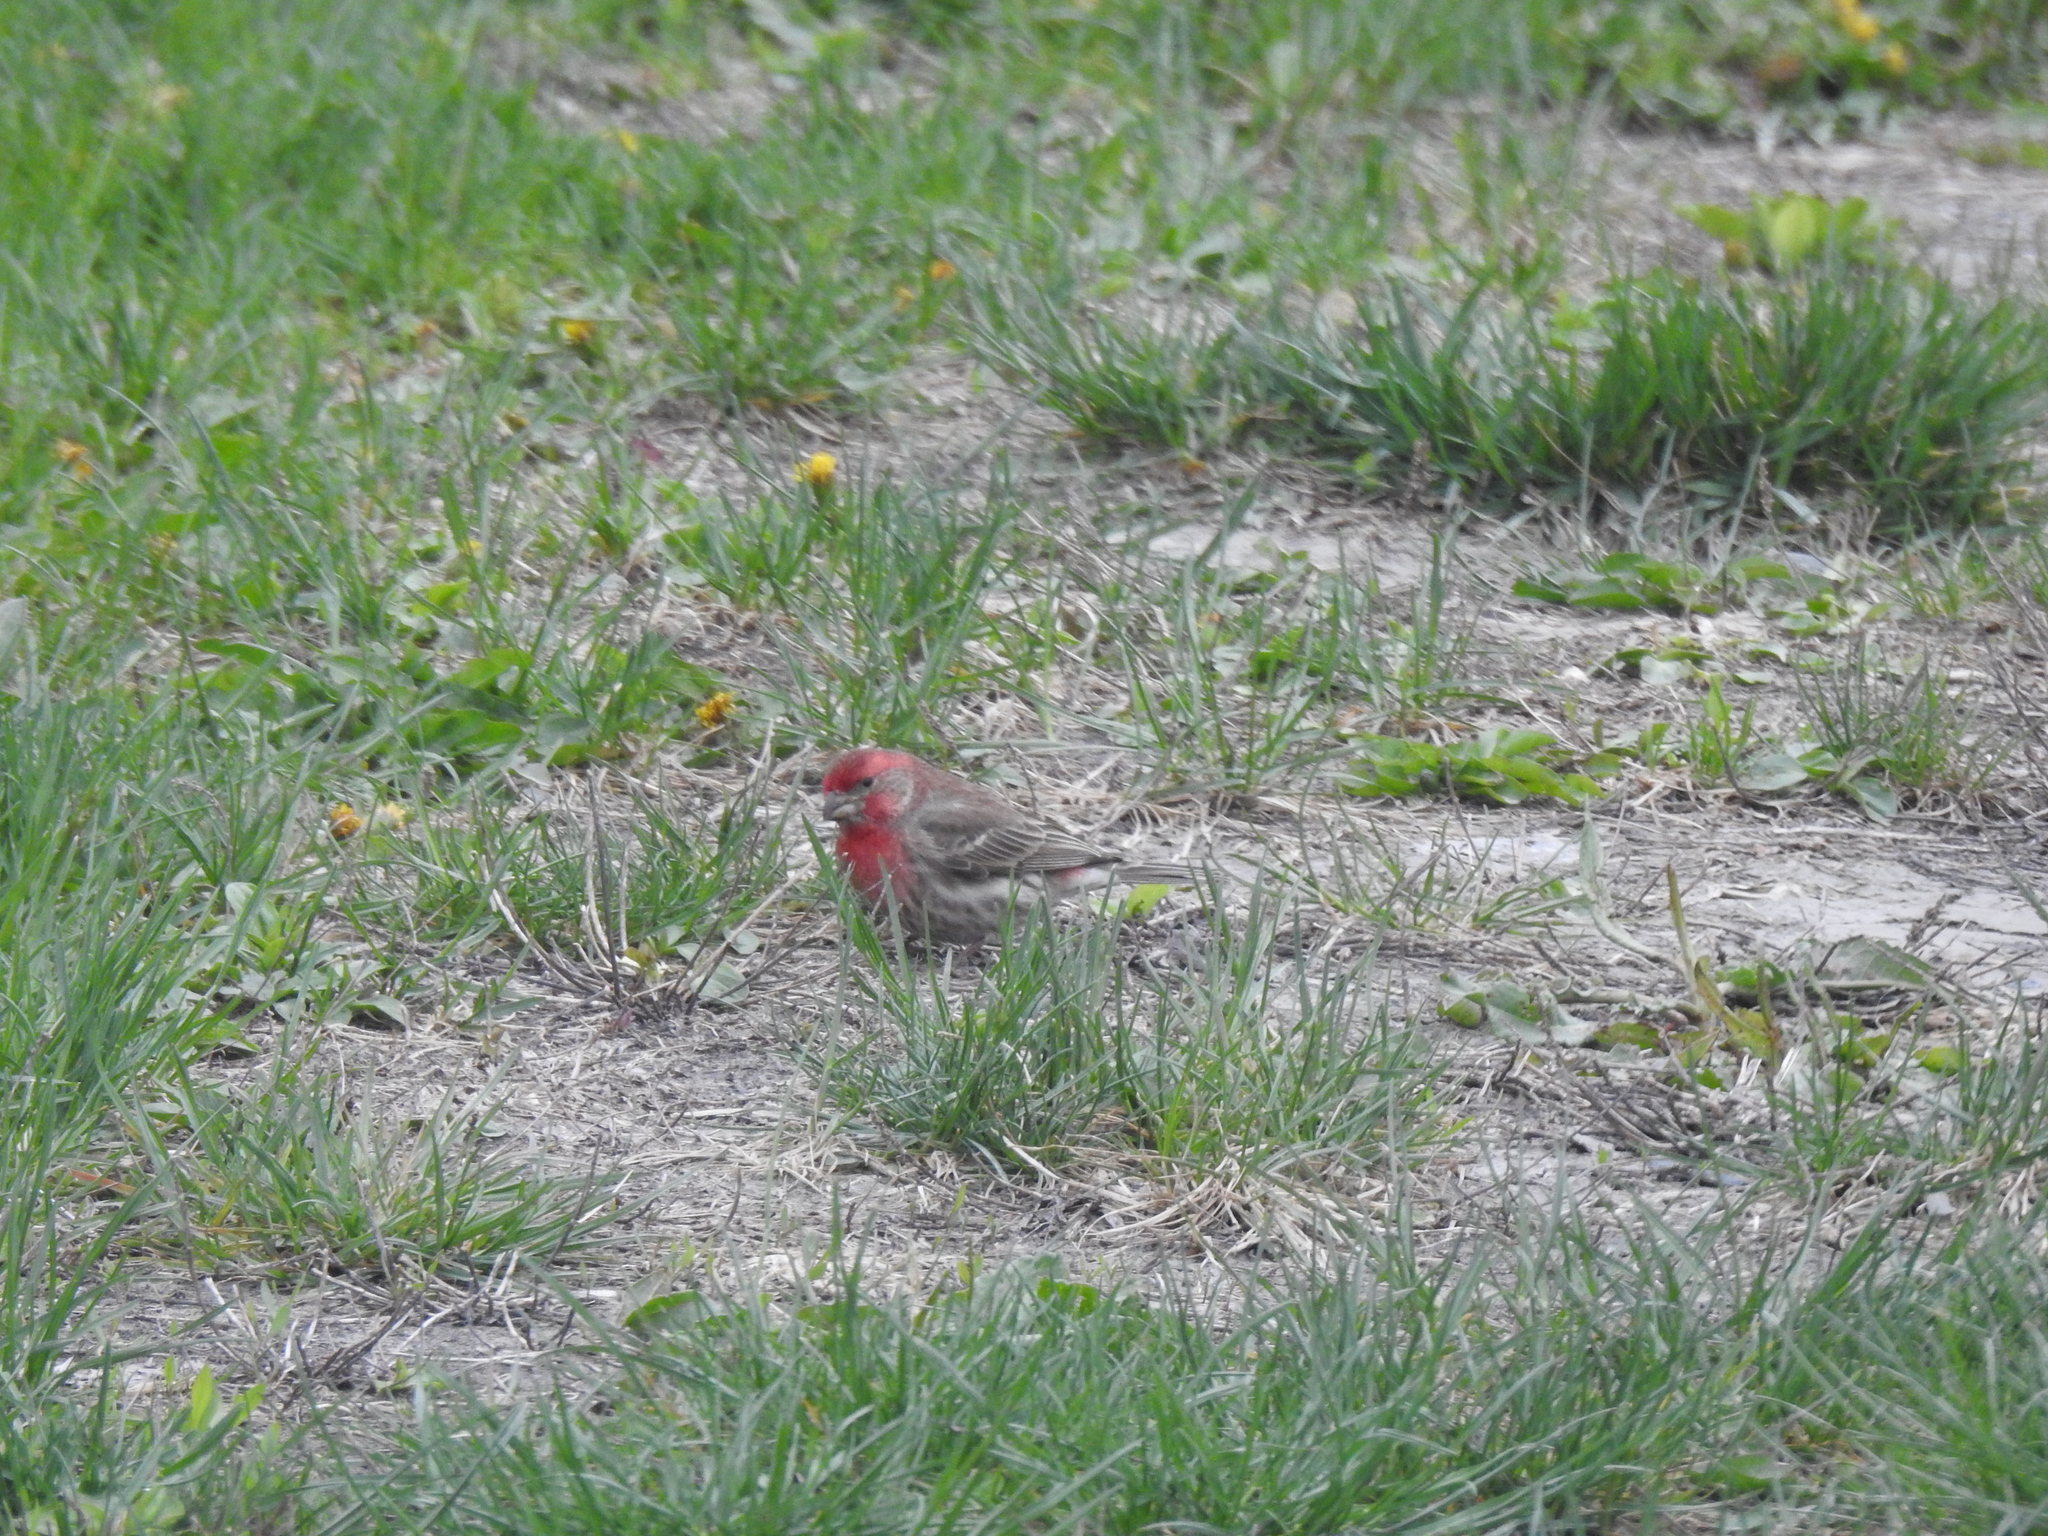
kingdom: Animalia
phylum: Chordata
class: Aves
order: Passeriformes
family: Fringillidae
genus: Haemorhous
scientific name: Haemorhous mexicanus
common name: House finch
